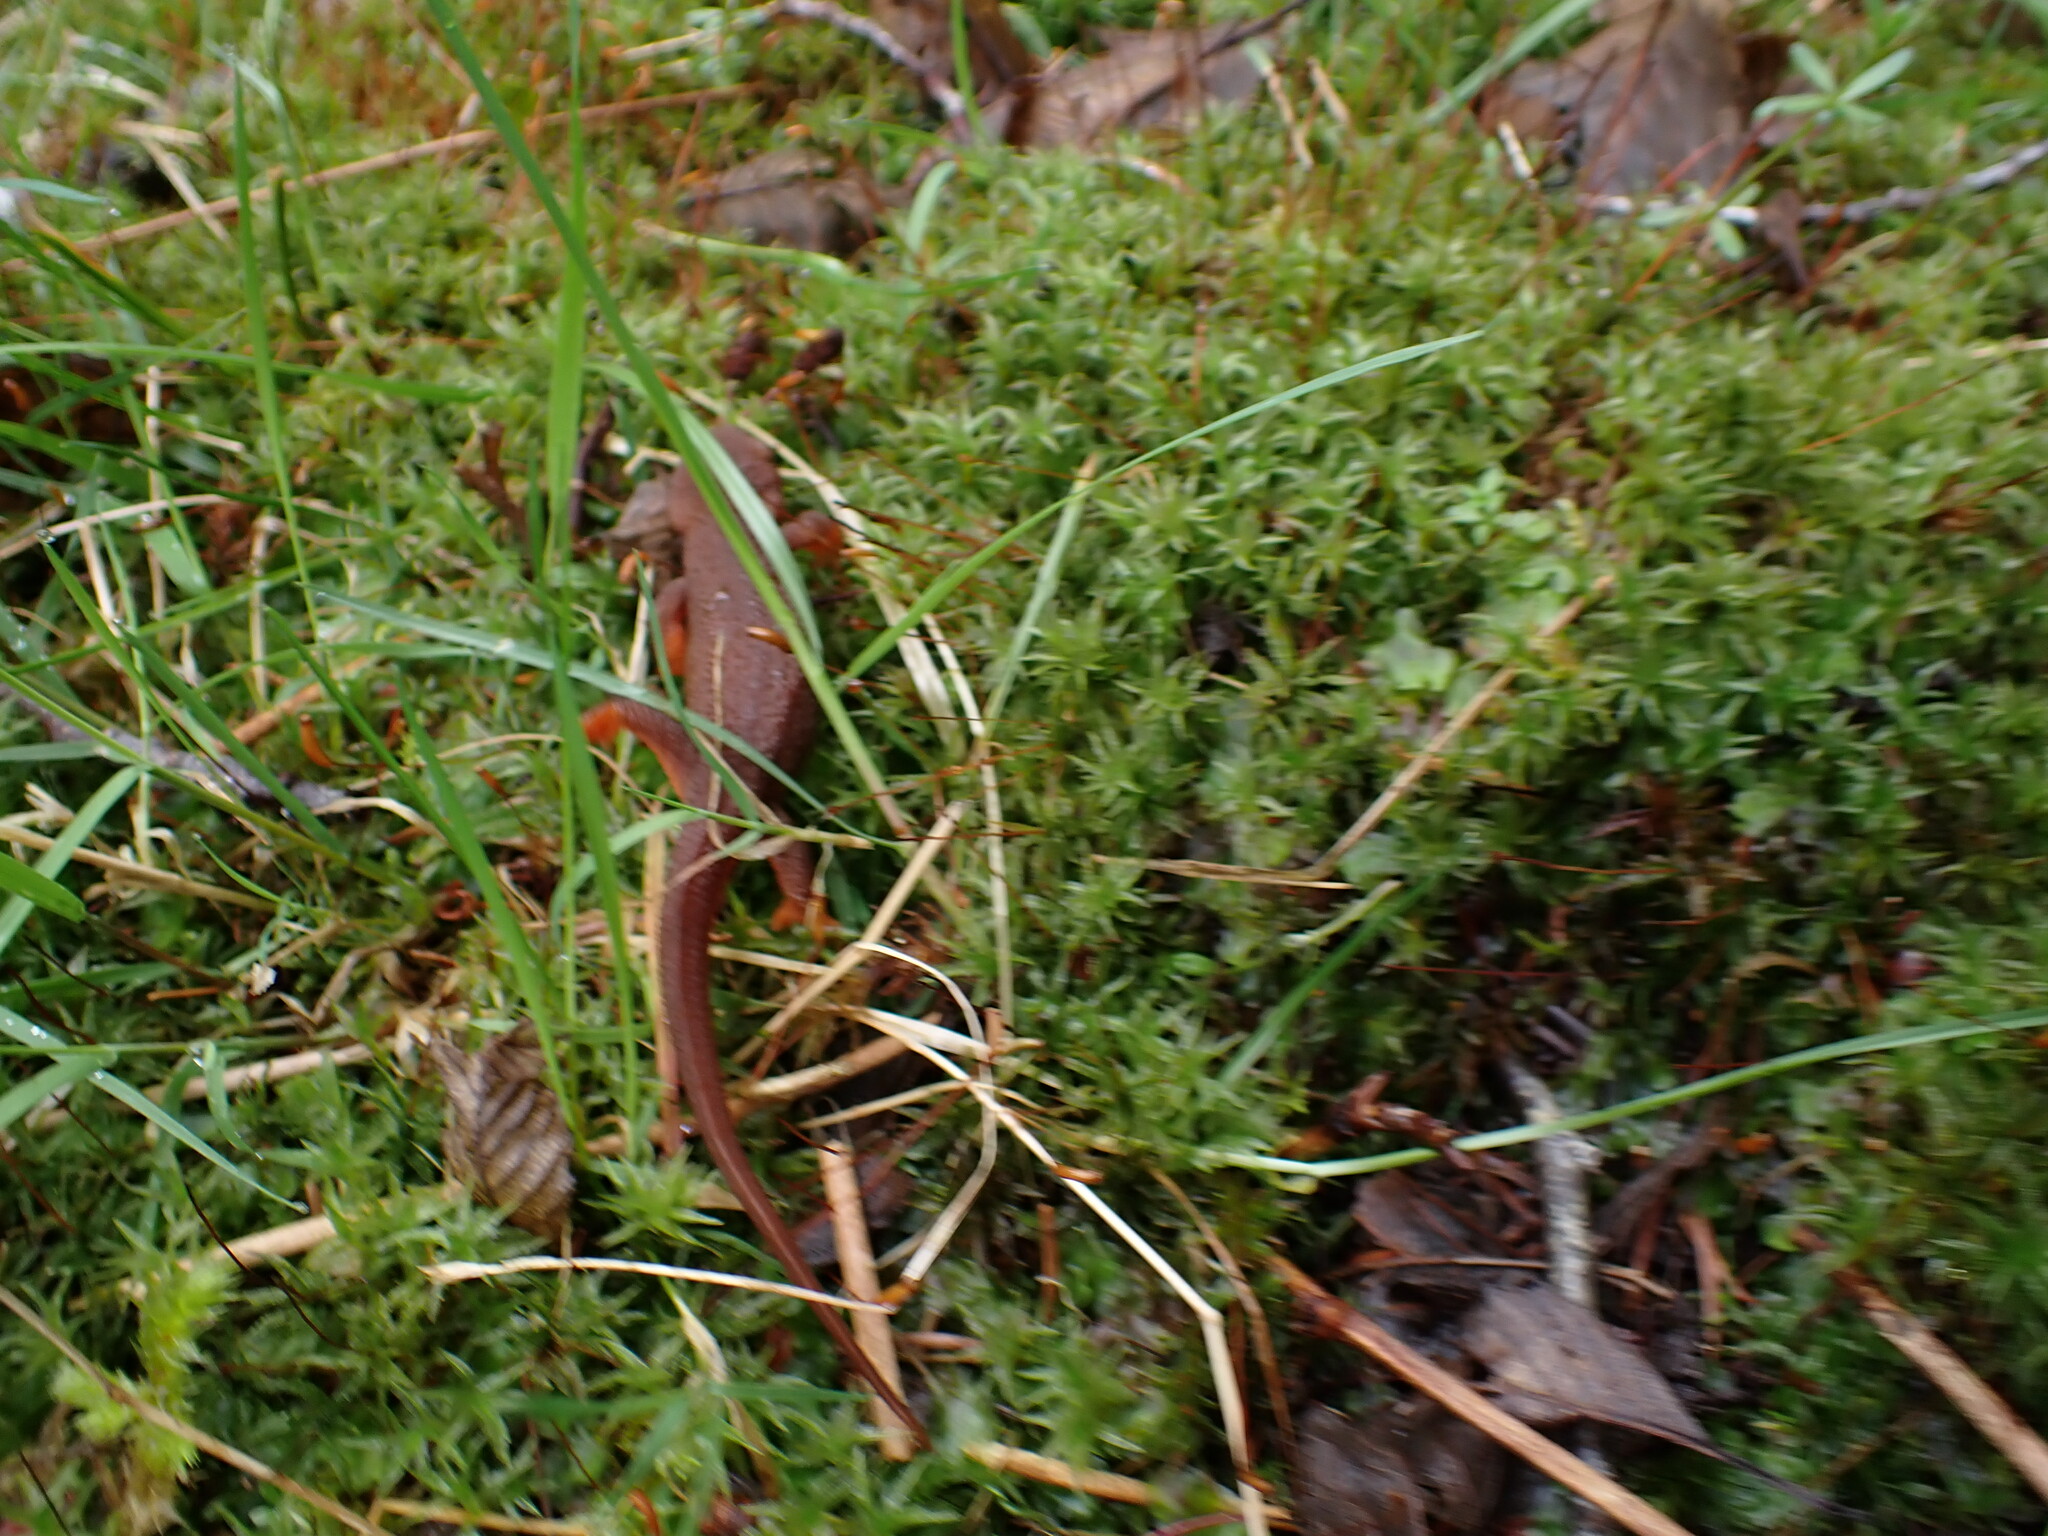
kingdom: Animalia
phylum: Chordata
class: Amphibia
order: Caudata
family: Salamandridae
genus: Taricha
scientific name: Taricha granulosa
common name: Roughskin newt
